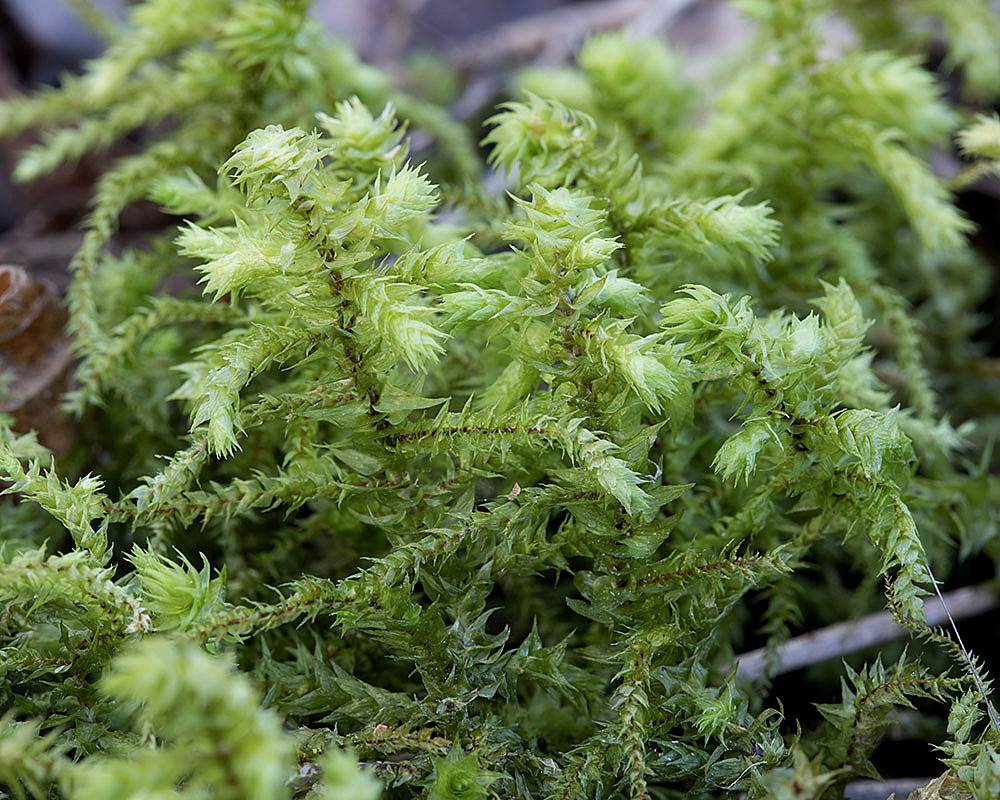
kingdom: Plantae
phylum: Bryophyta
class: Bryopsida
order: Hypnales
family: Hylocomiaceae
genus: Hylocomiadelphus
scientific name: Hylocomiadelphus triquetrus
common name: Rough goose neck moss
